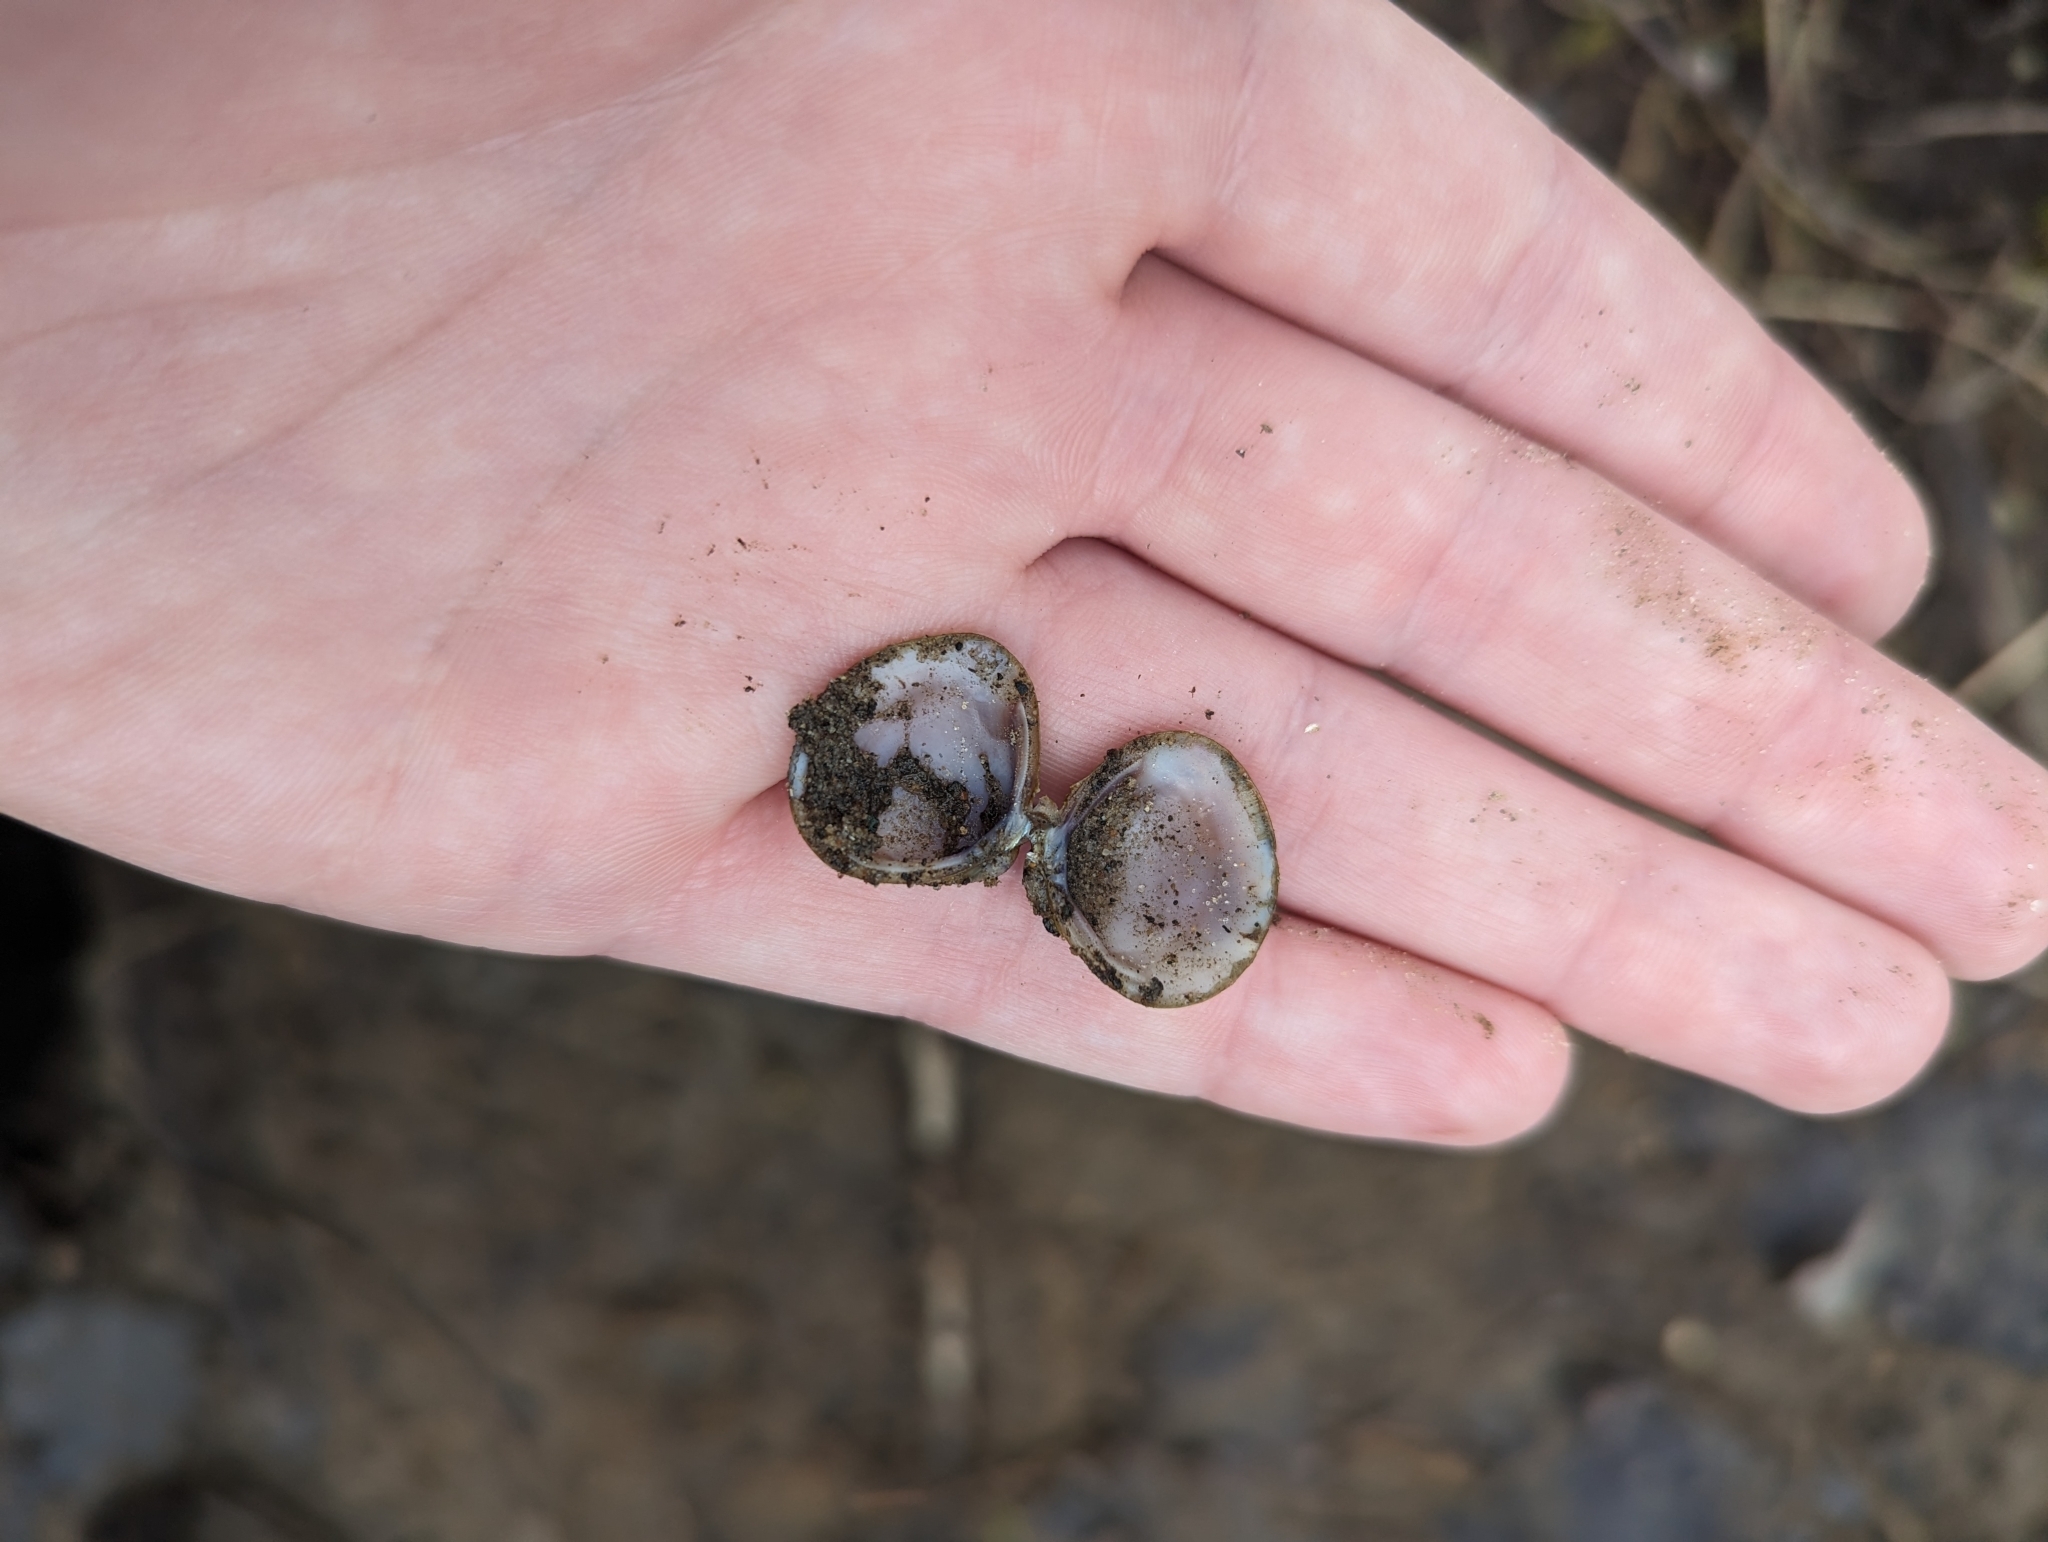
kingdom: Animalia
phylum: Mollusca
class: Bivalvia
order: Venerida
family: Cyrenidae
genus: Corbicula
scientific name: Corbicula fluminea
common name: Asian clam
